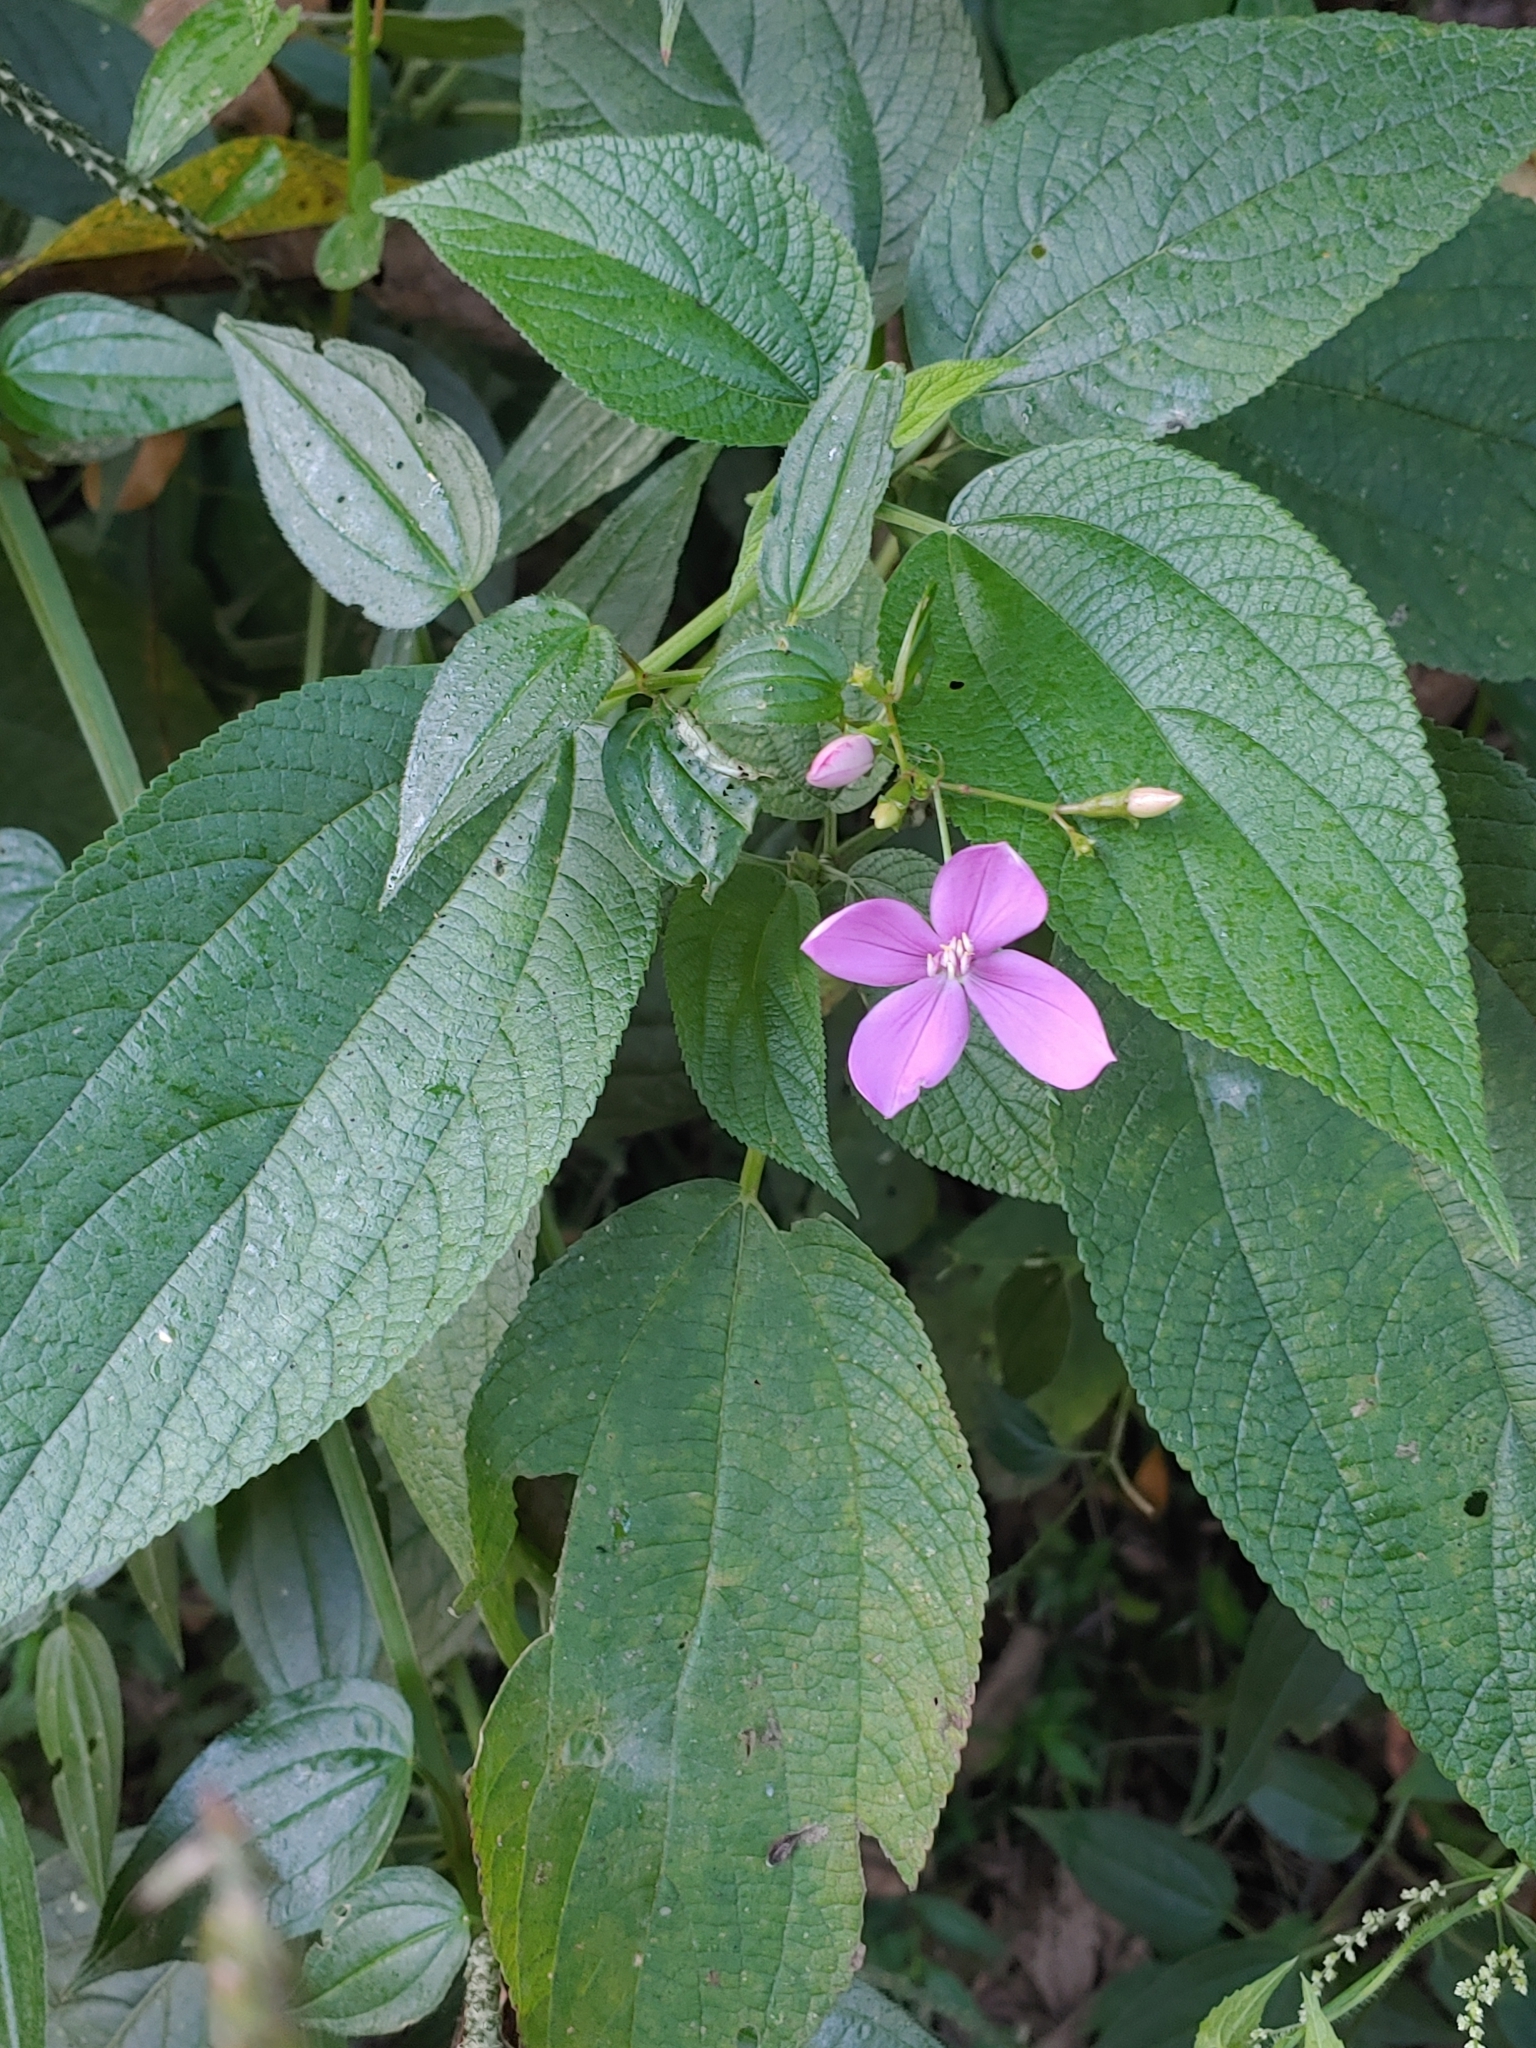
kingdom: Plantae
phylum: Tracheophyta
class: Magnoliopsida
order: Myrtales
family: Melastomataceae
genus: Arthrostemma
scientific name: Arthrostemma ciliatum
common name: Everblooming eavender
